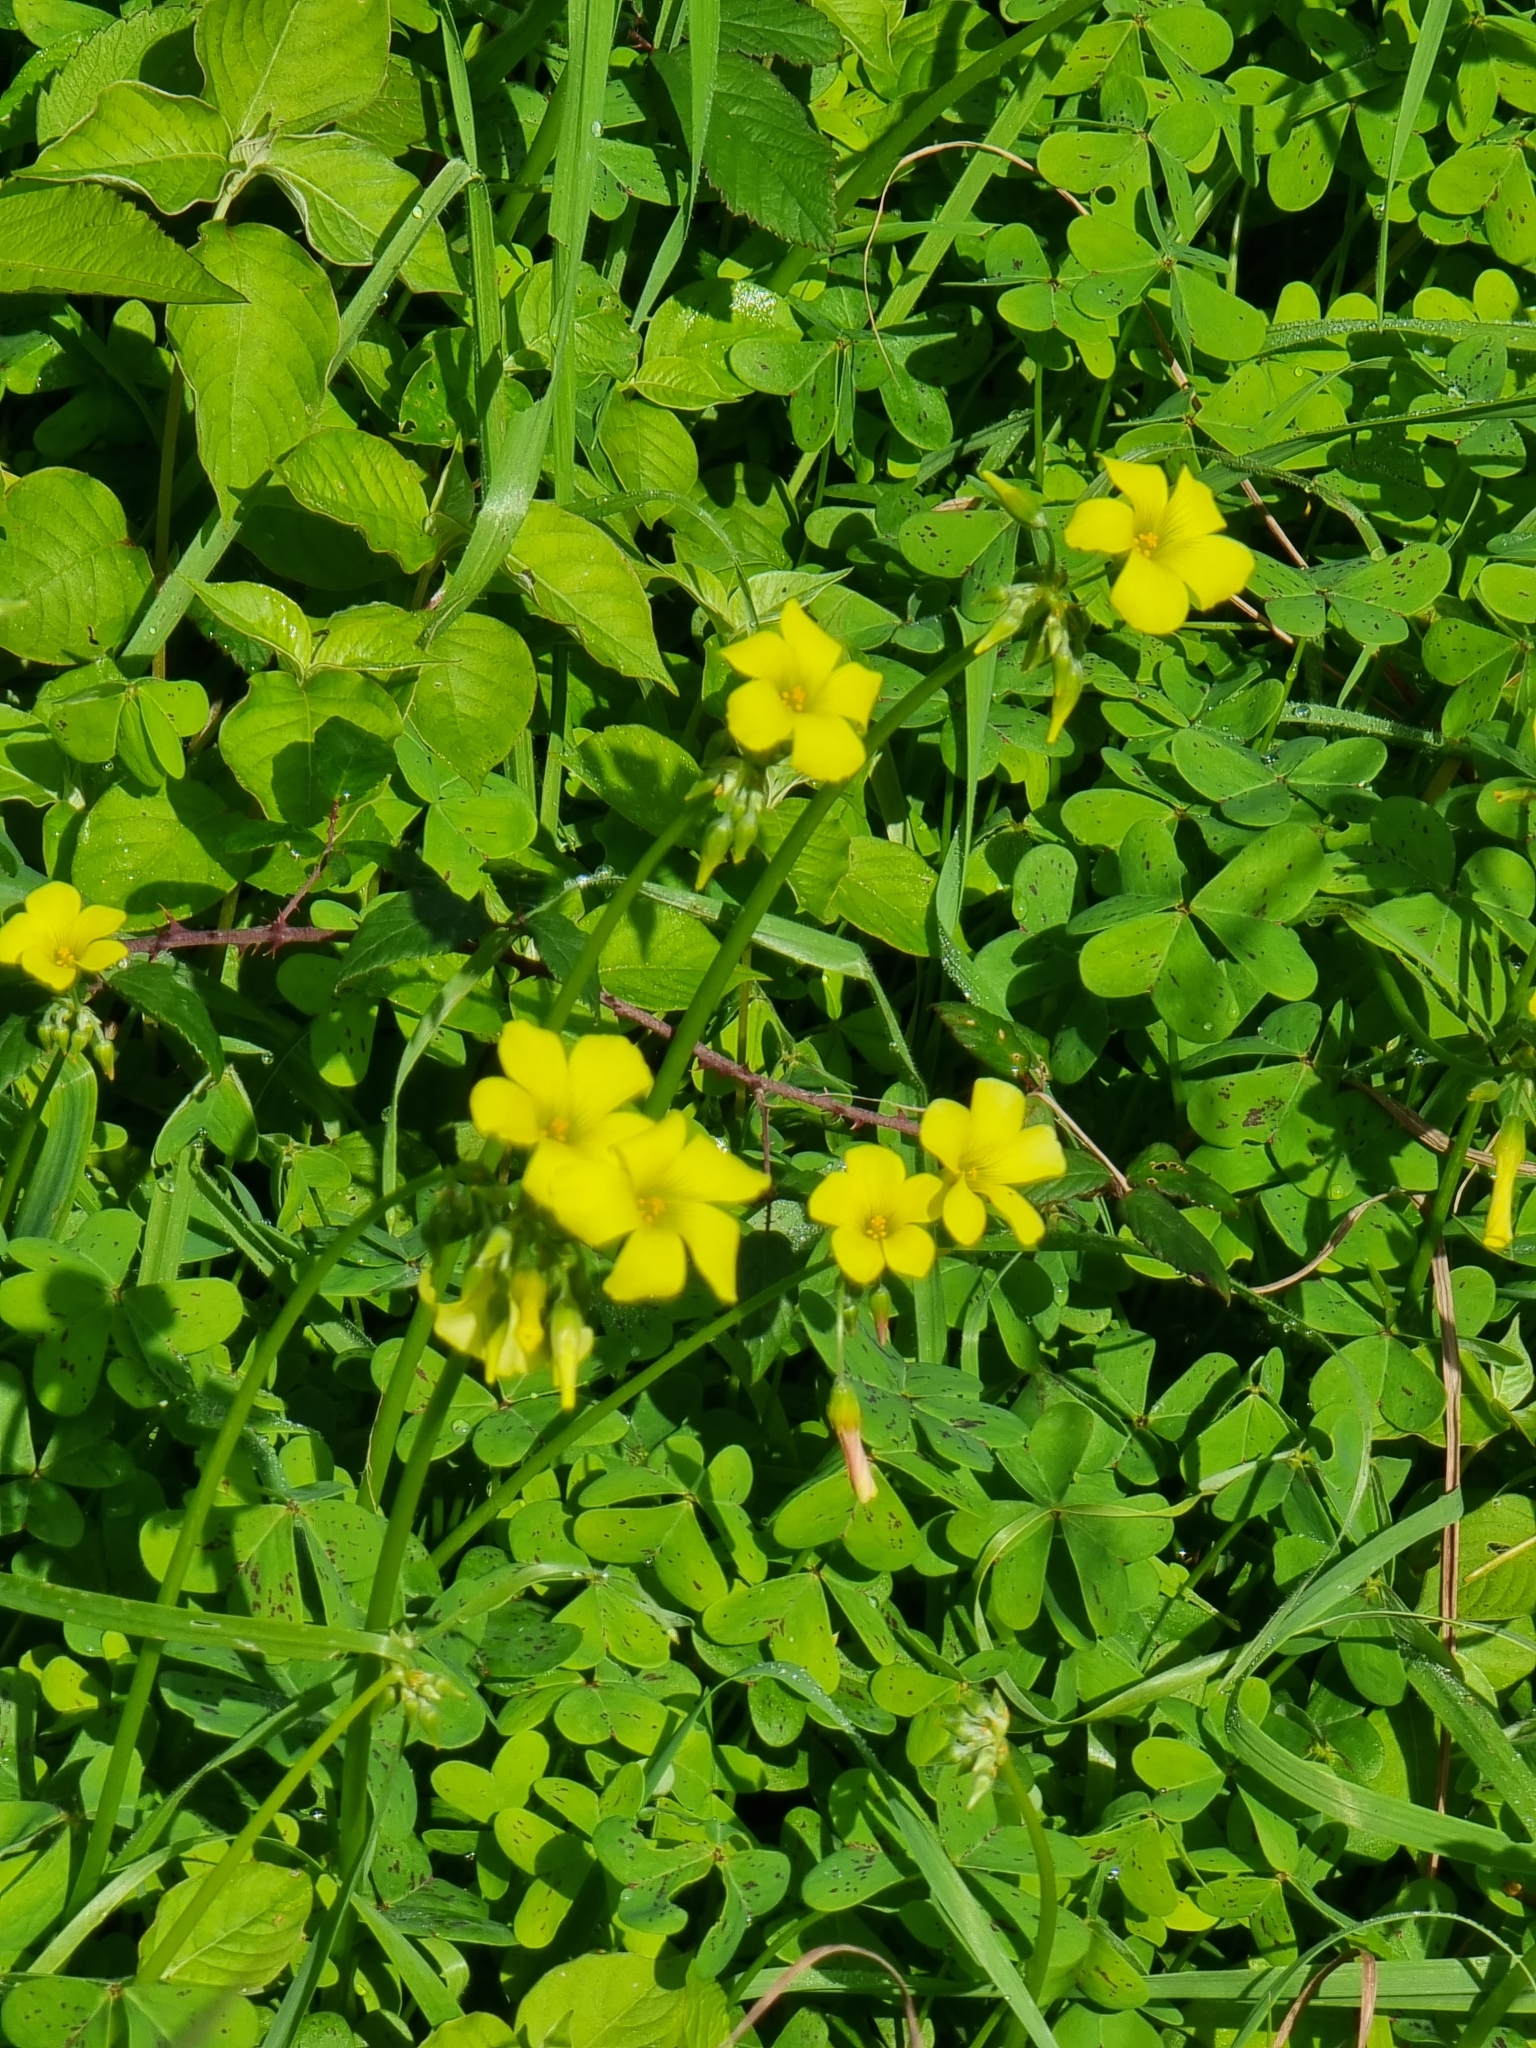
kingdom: Plantae
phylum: Tracheophyta
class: Magnoliopsida
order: Oxalidales
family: Oxalidaceae
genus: Oxalis
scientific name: Oxalis pes-caprae
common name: Bermuda-buttercup
